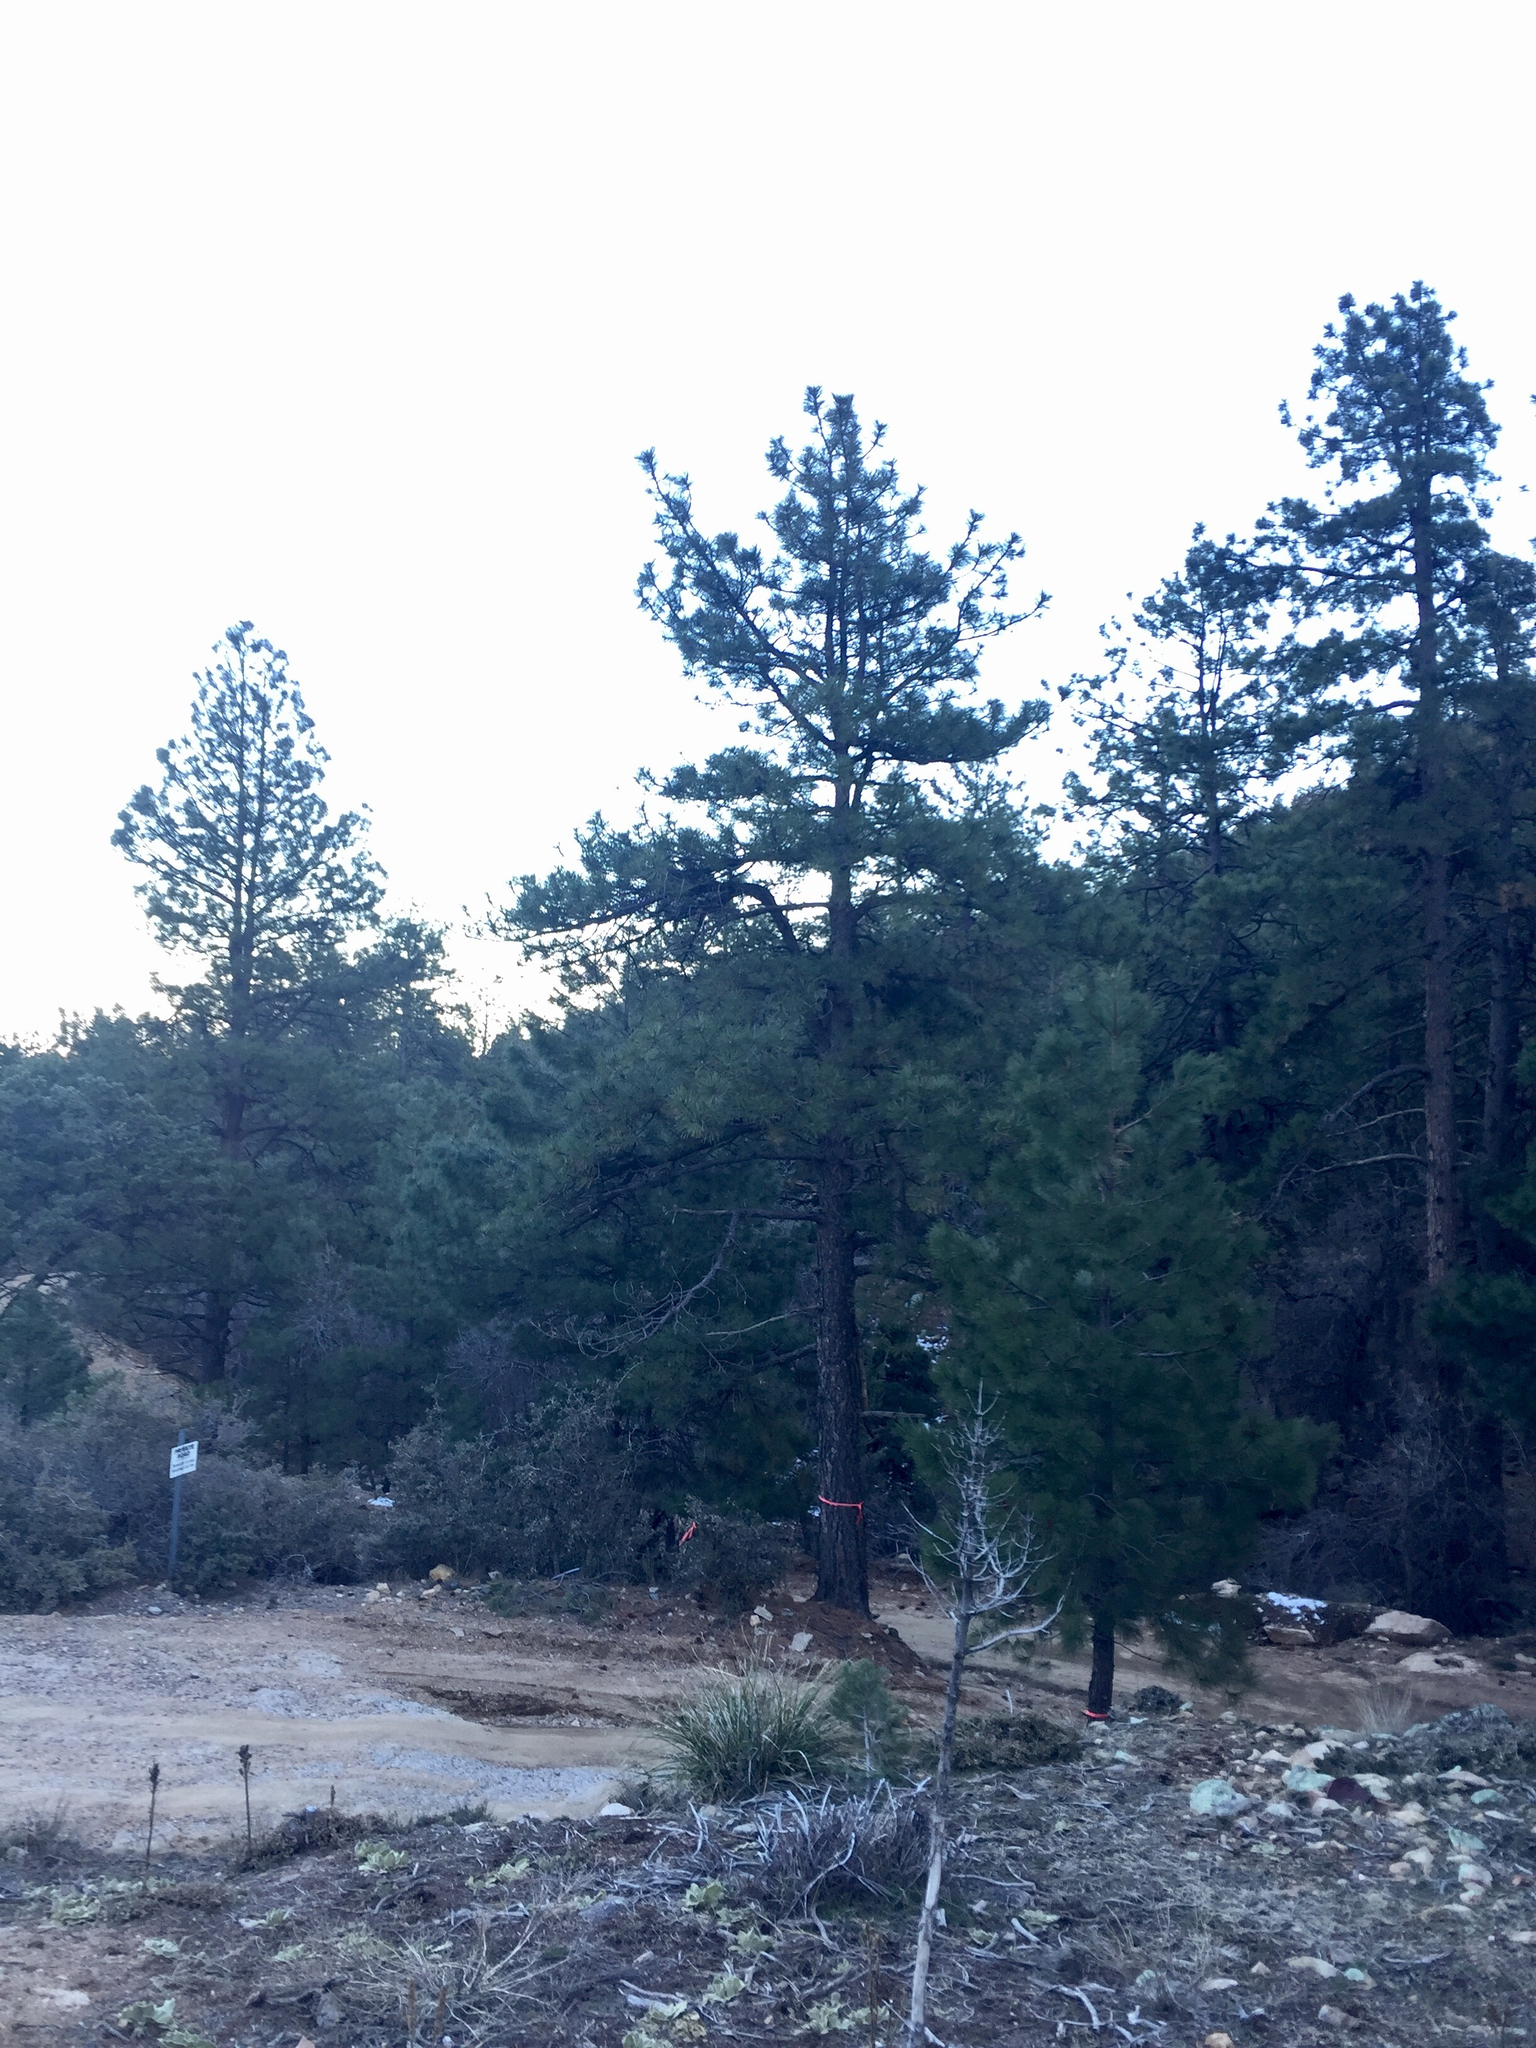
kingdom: Plantae
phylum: Tracheophyta
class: Pinopsida
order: Pinales
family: Pinaceae
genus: Pinus
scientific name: Pinus ponderosa
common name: Western yellow-pine
